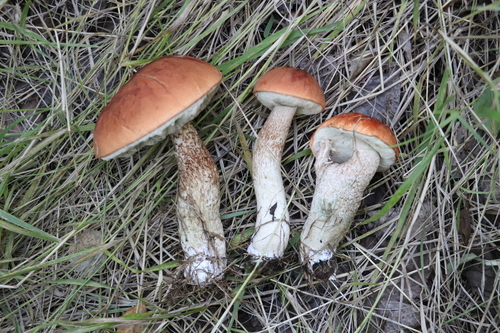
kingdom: Fungi
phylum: Basidiomycota
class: Agaricomycetes
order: Boletales
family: Boletaceae
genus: Leccinum
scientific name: Leccinum aurantiacum
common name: Orange bolete
